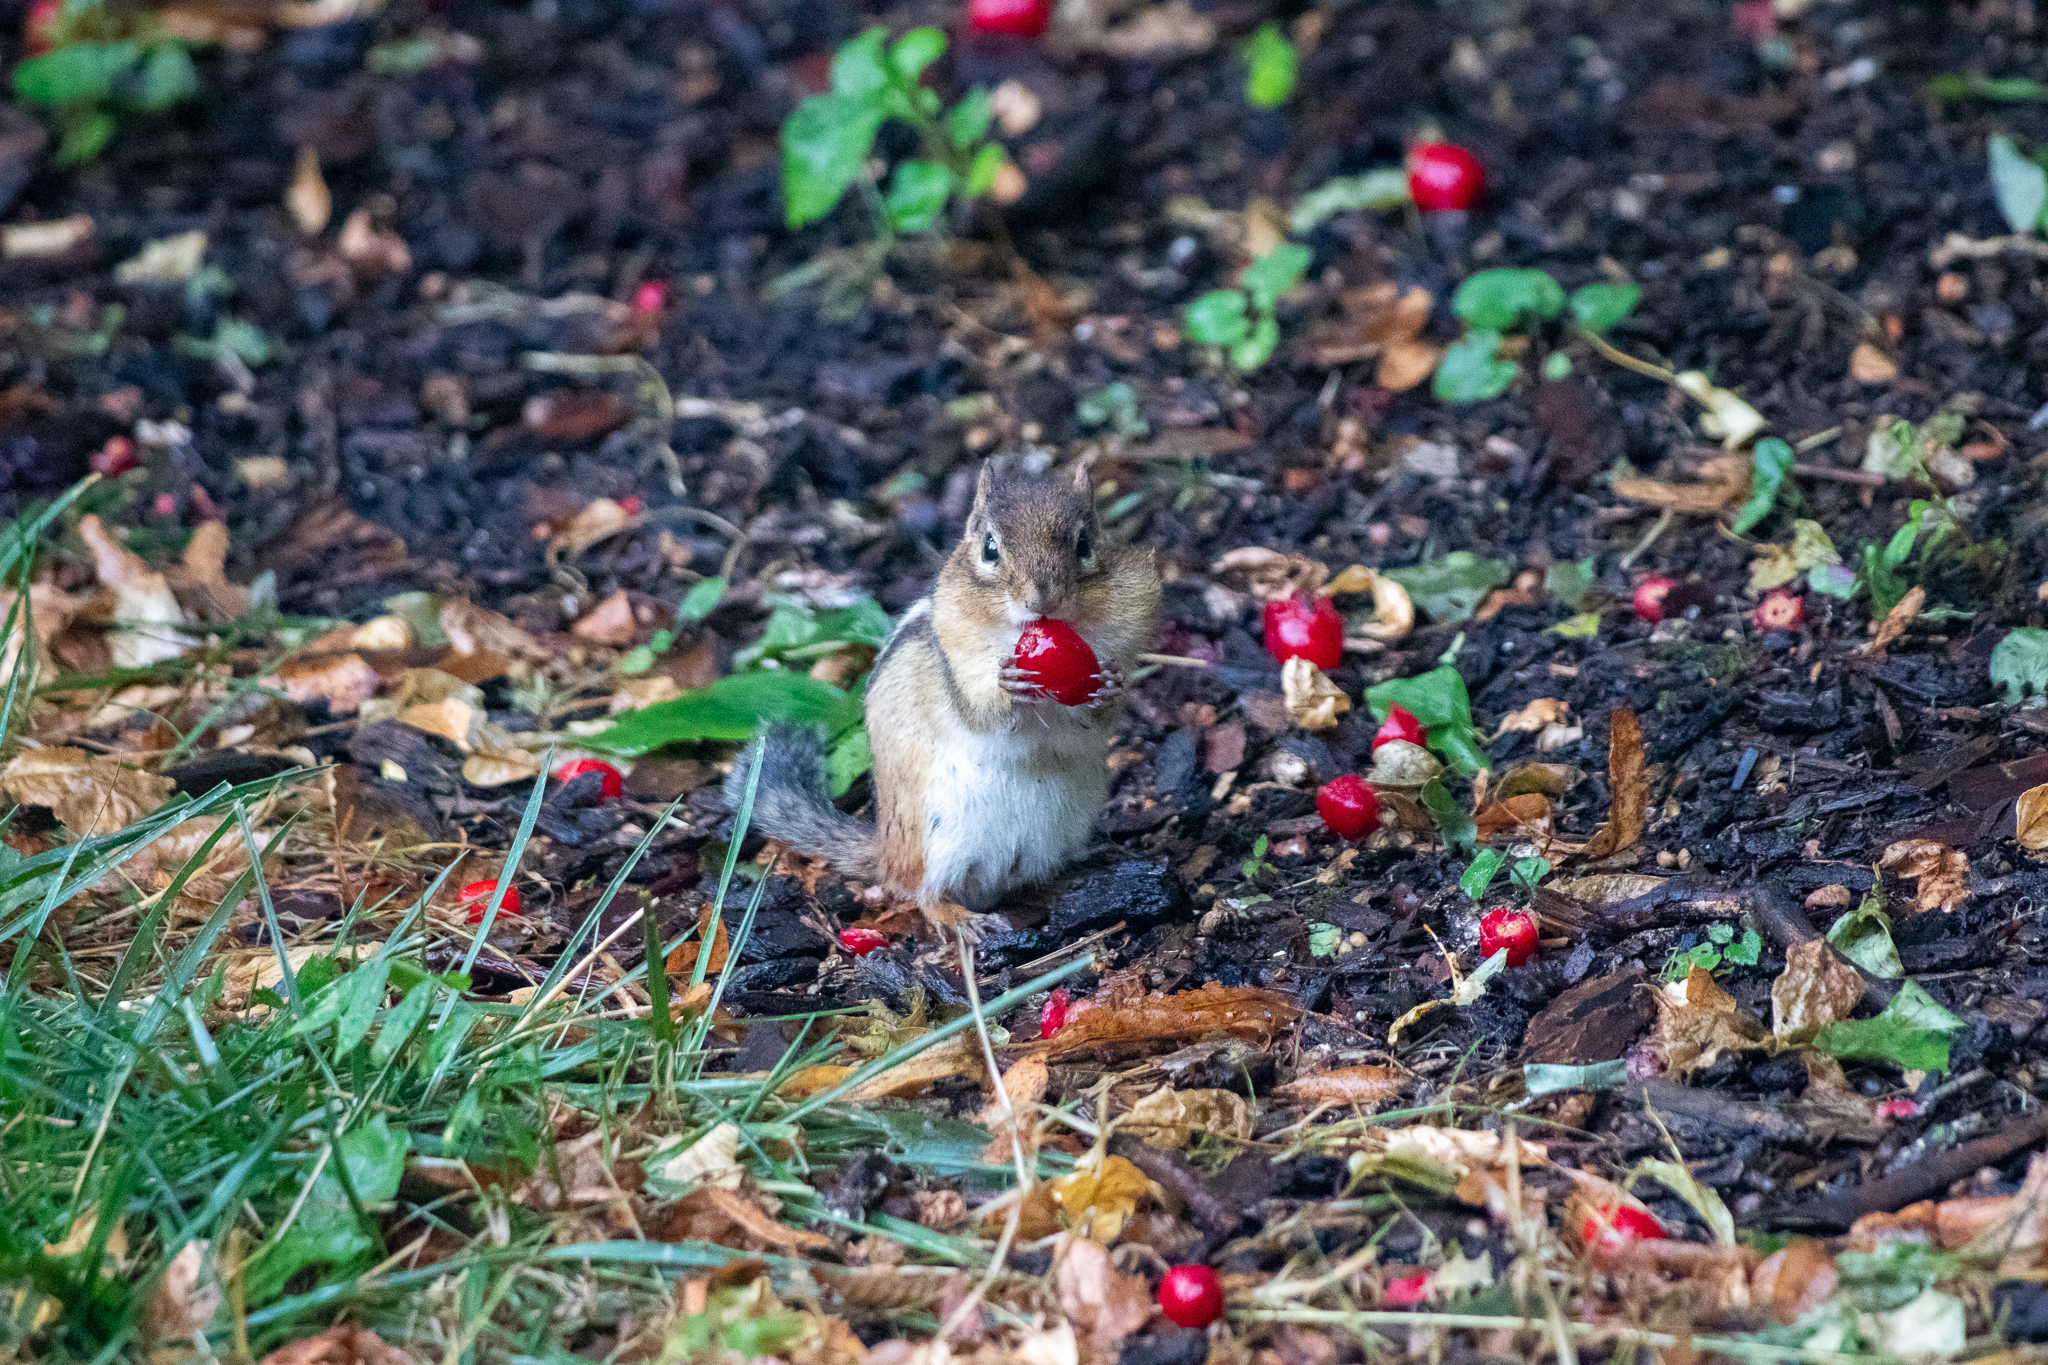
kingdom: Animalia
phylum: Chordata
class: Mammalia
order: Rodentia
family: Sciuridae
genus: Tamias
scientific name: Tamias striatus
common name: Eastern chipmunk
